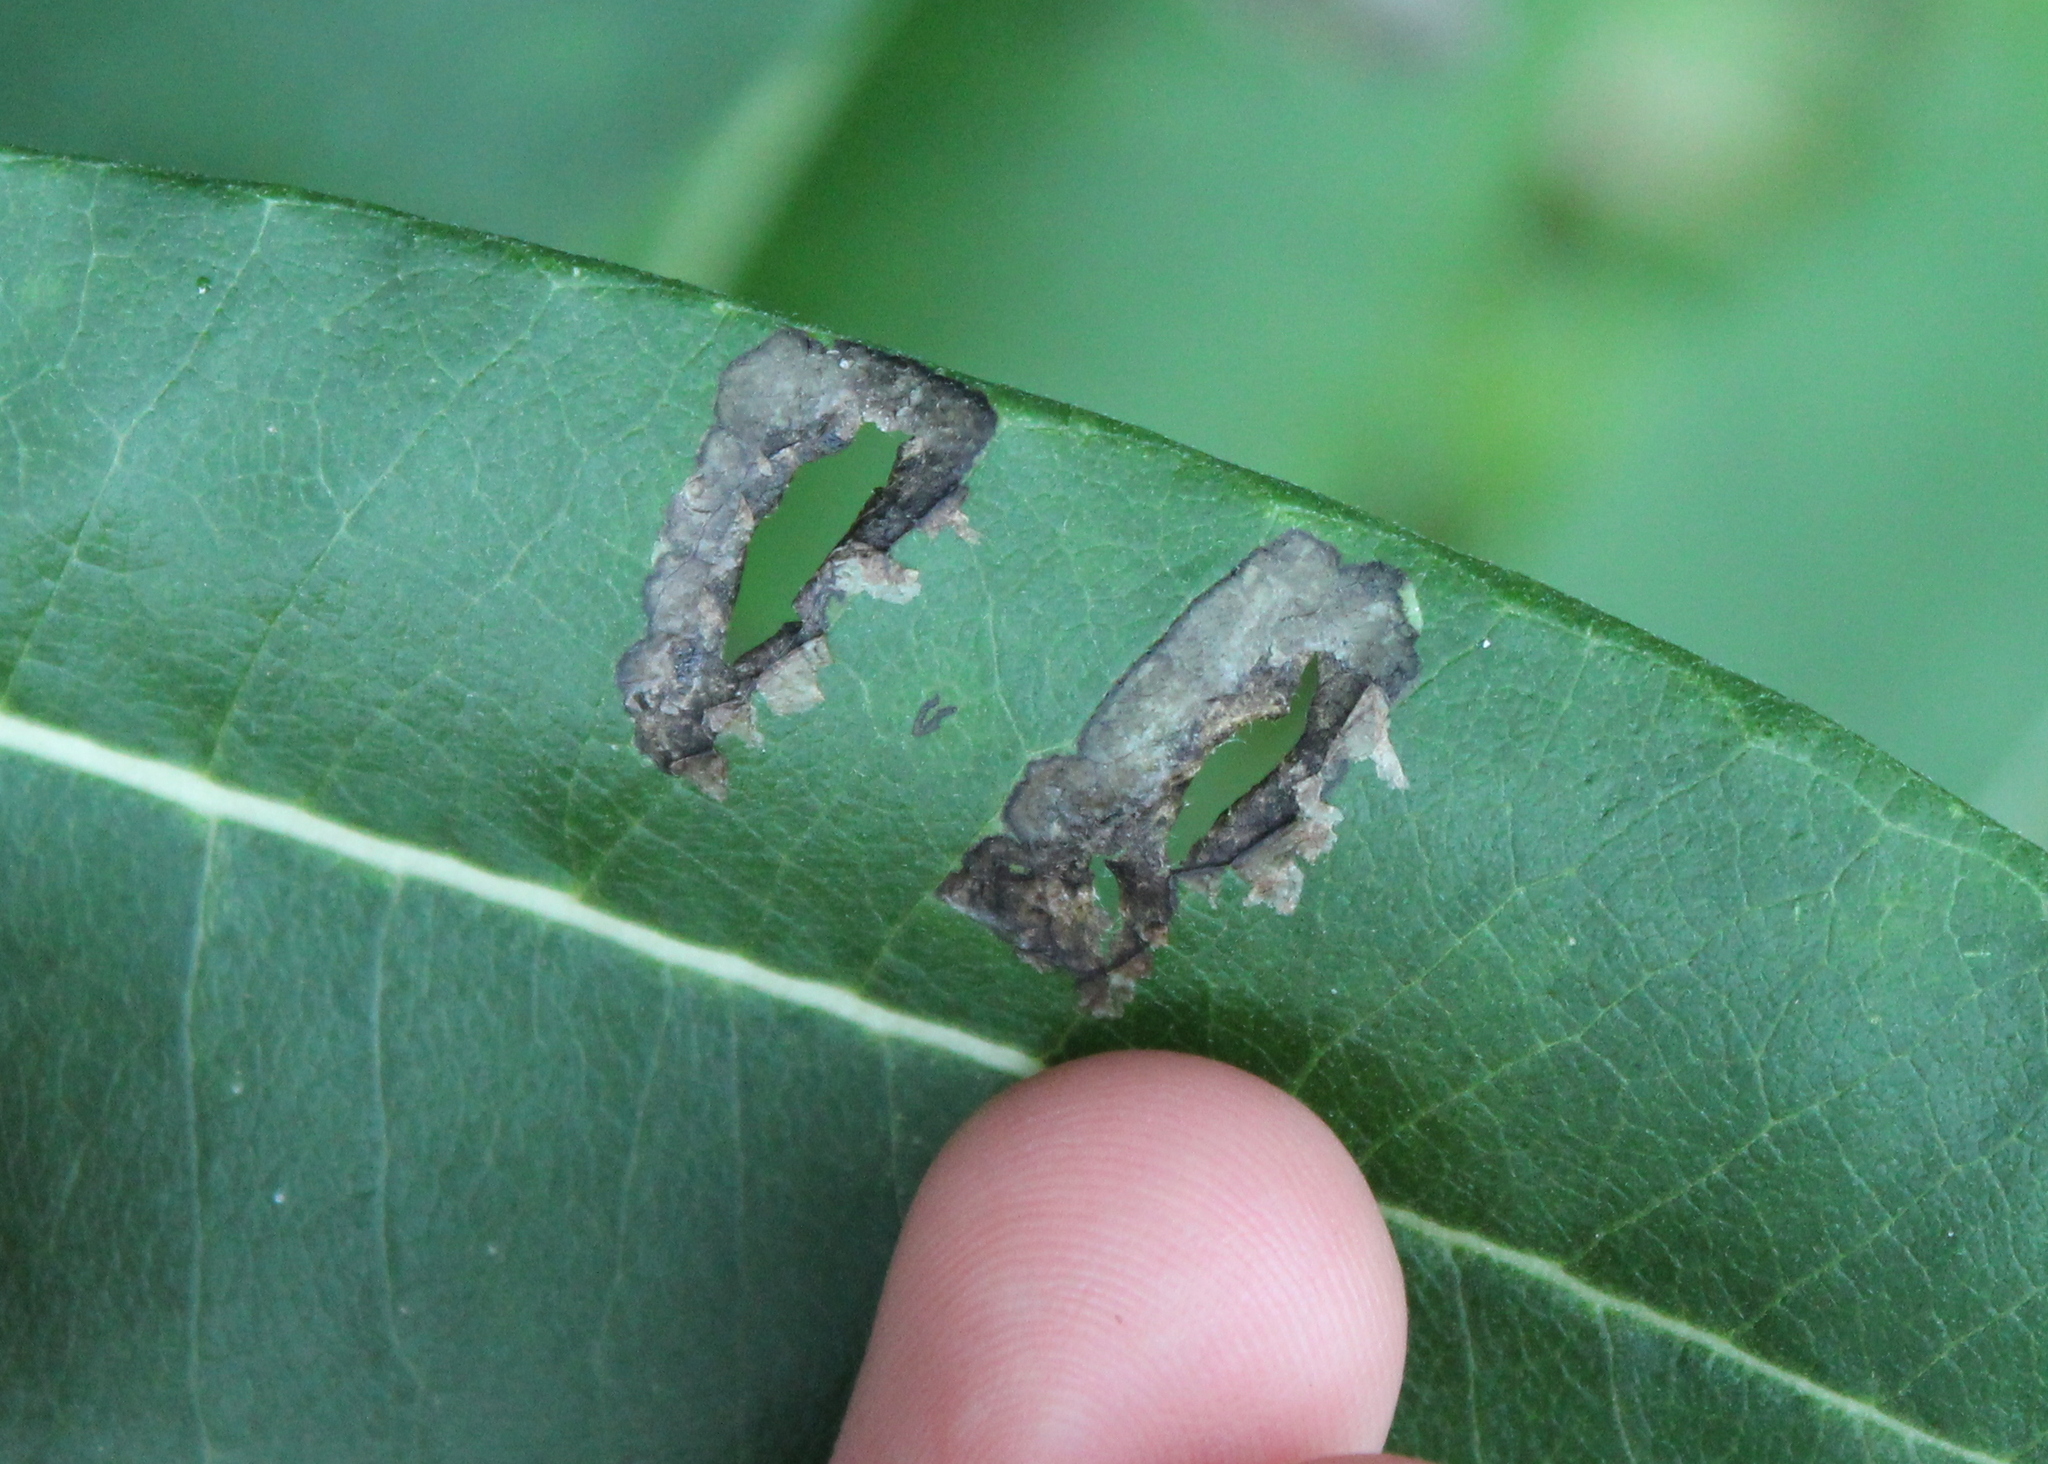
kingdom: Animalia
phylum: Arthropoda
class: Insecta
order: Diptera
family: Agromyzidae
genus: Liriomyza
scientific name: Liriomyza asclepiadis
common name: Milkweed leaf-miner fly
